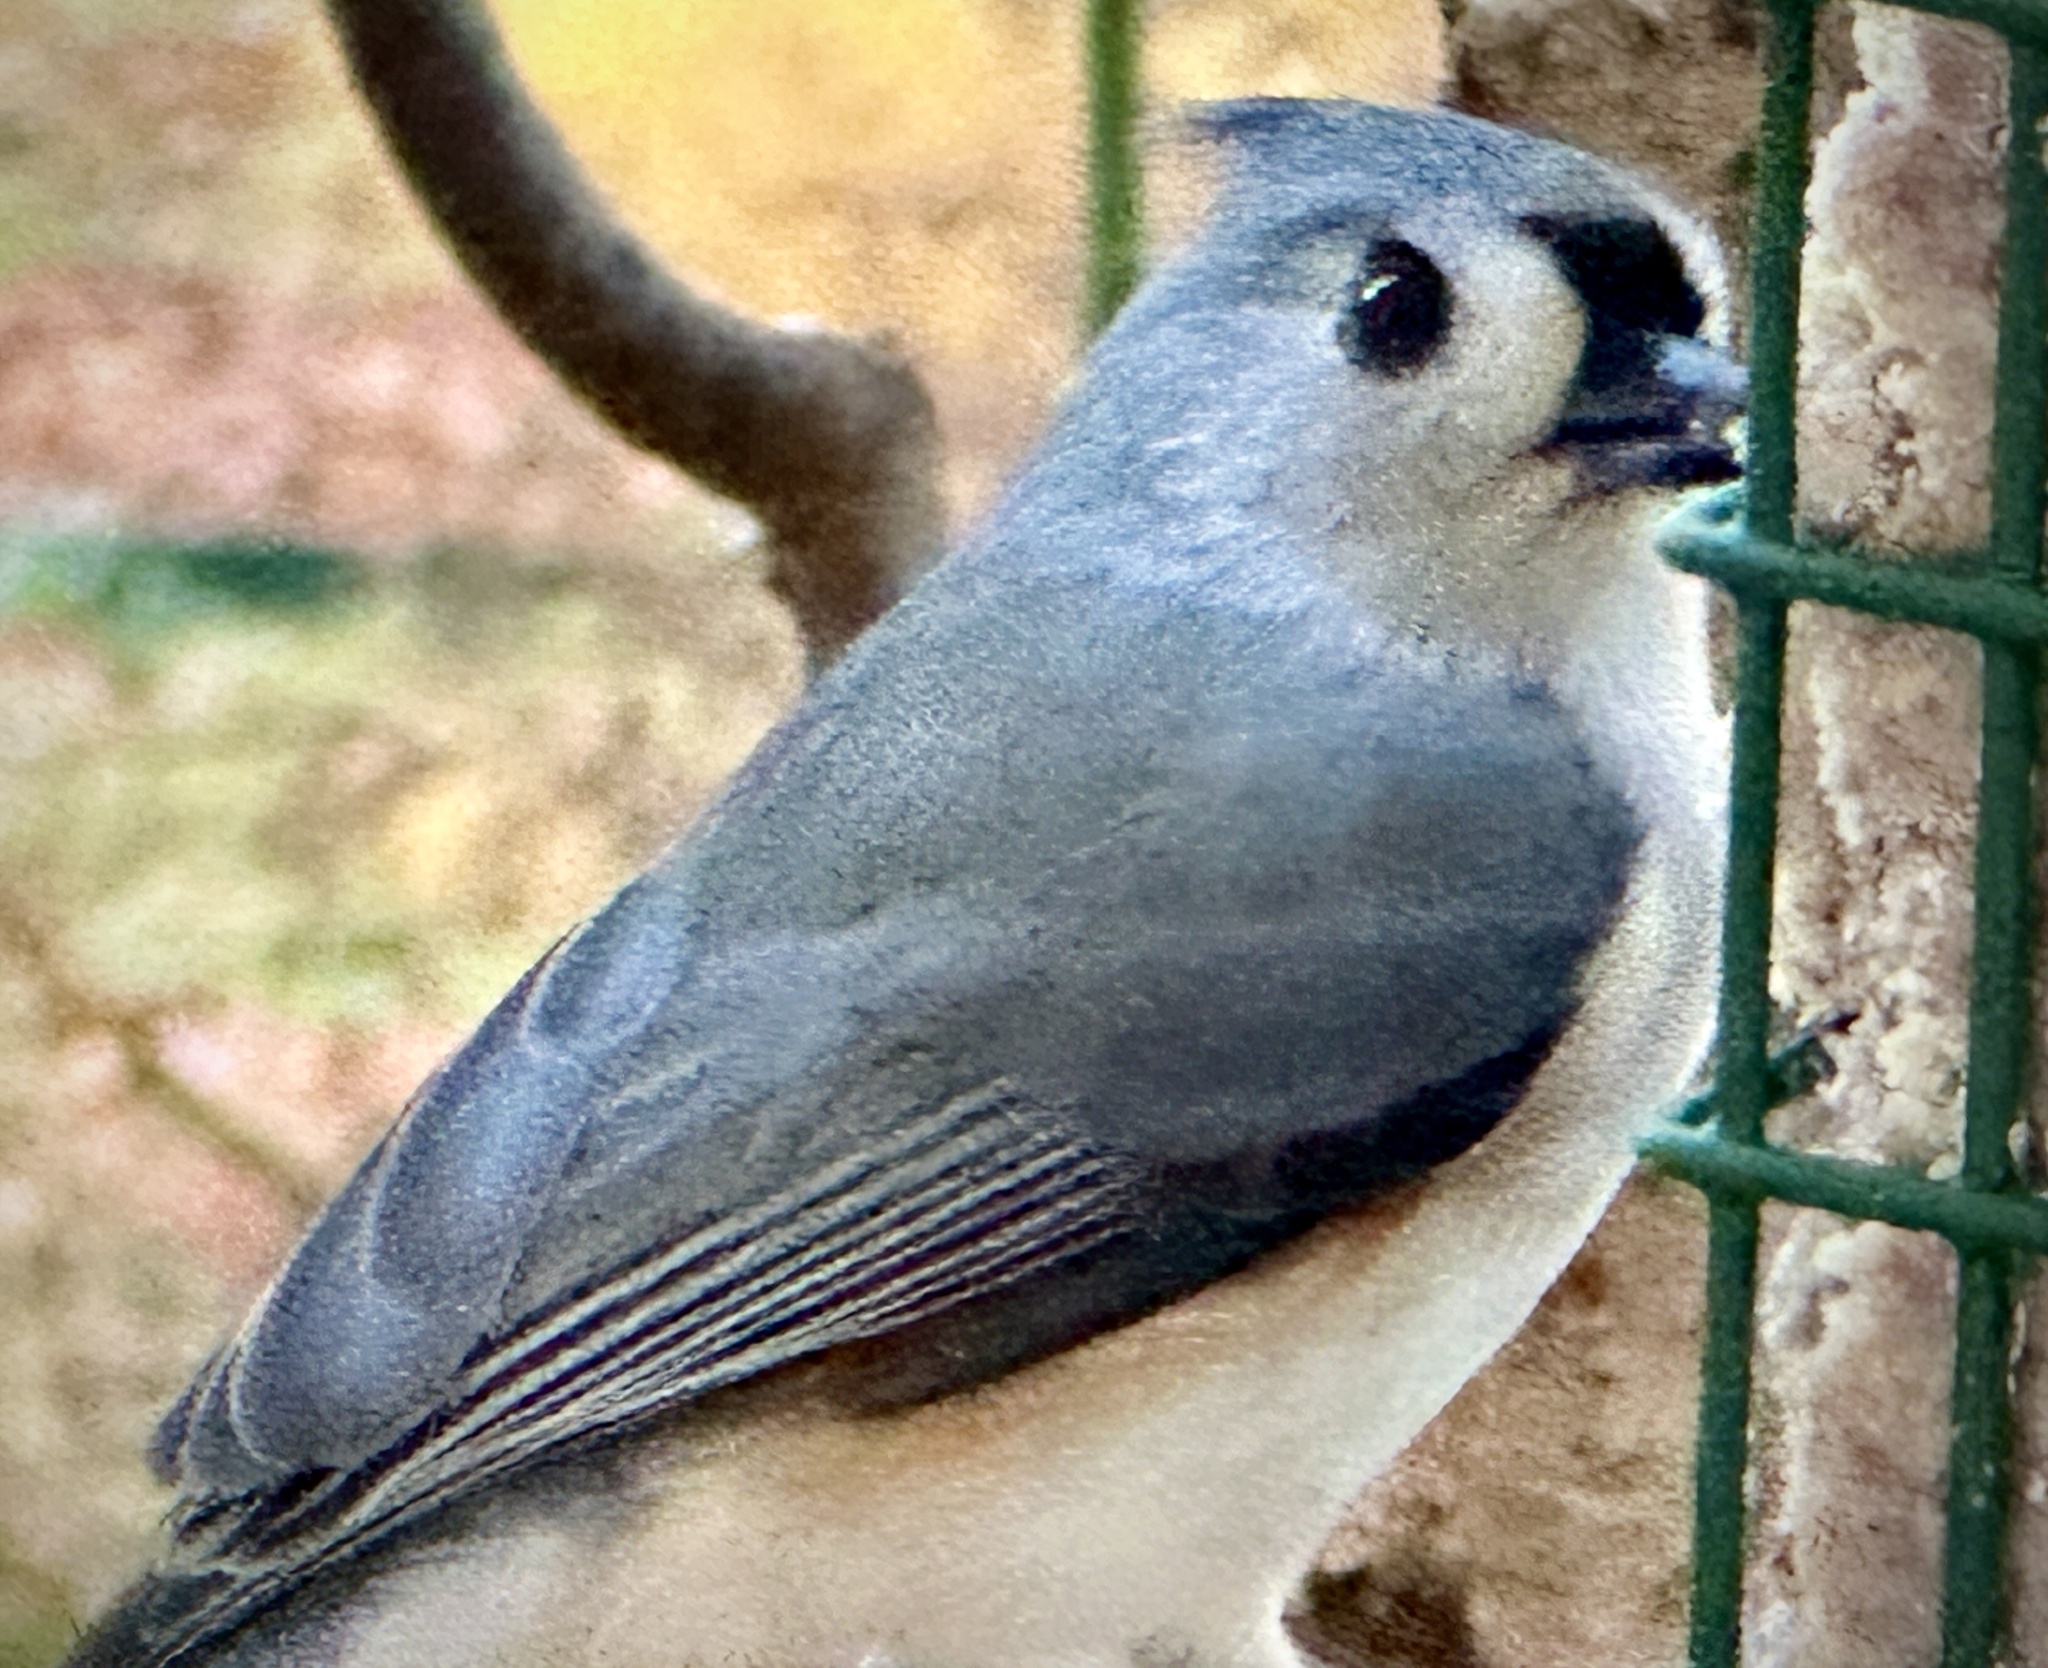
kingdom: Animalia
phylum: Chordata
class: Aves
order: Passeriformes
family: Paridae
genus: Baeolophus
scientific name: Baeolophus bicolor
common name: Tufted titmouse
